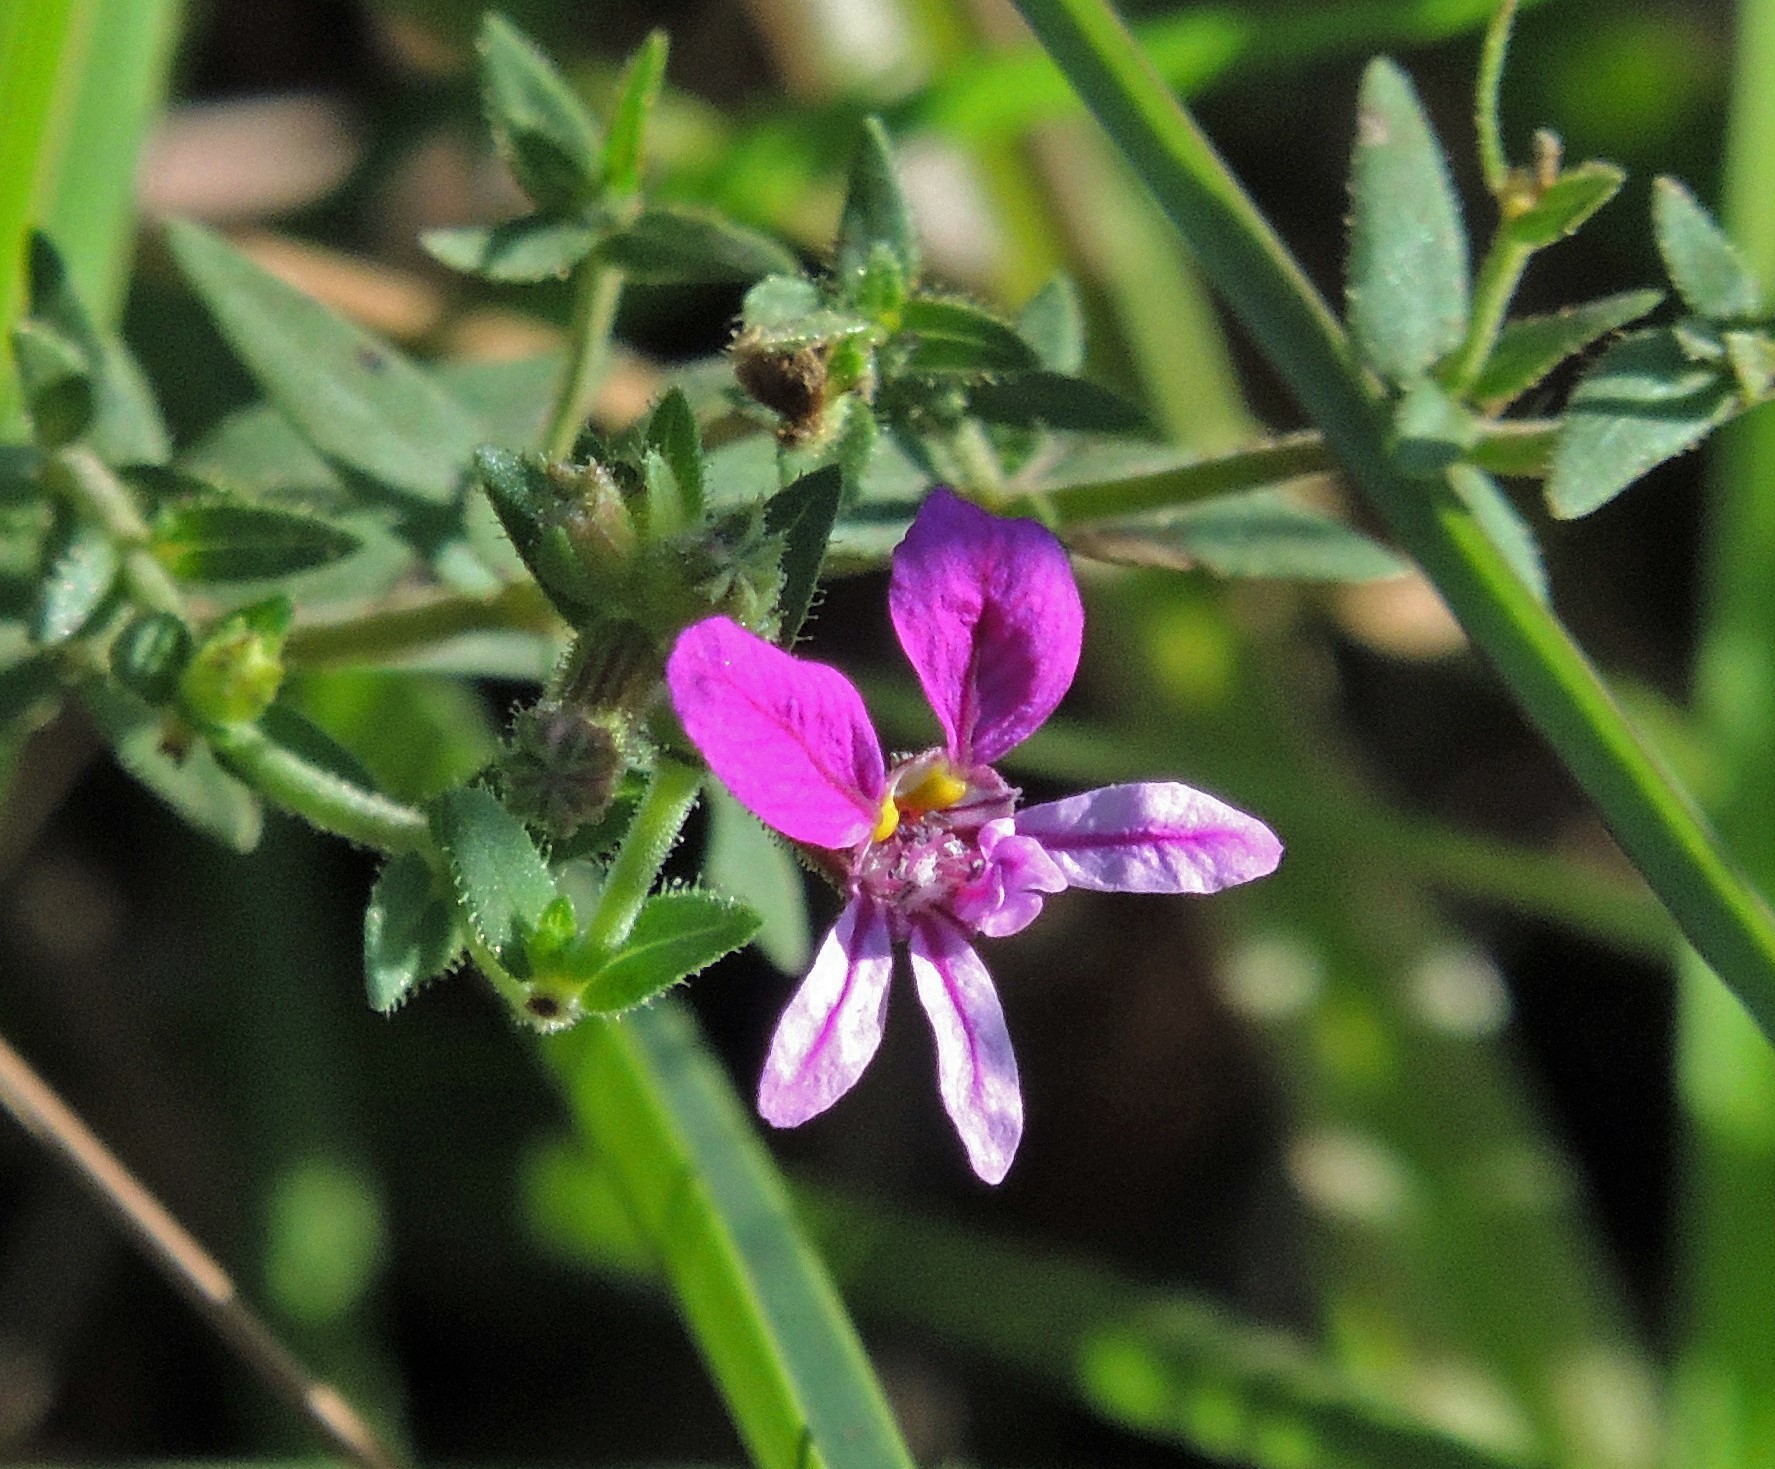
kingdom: Plantae
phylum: Tracheophyta
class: Magnoliopsida
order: Myrtales
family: Lythraceae
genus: Cuphea
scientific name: Cuphea glutinosa
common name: Sticky waxweed
